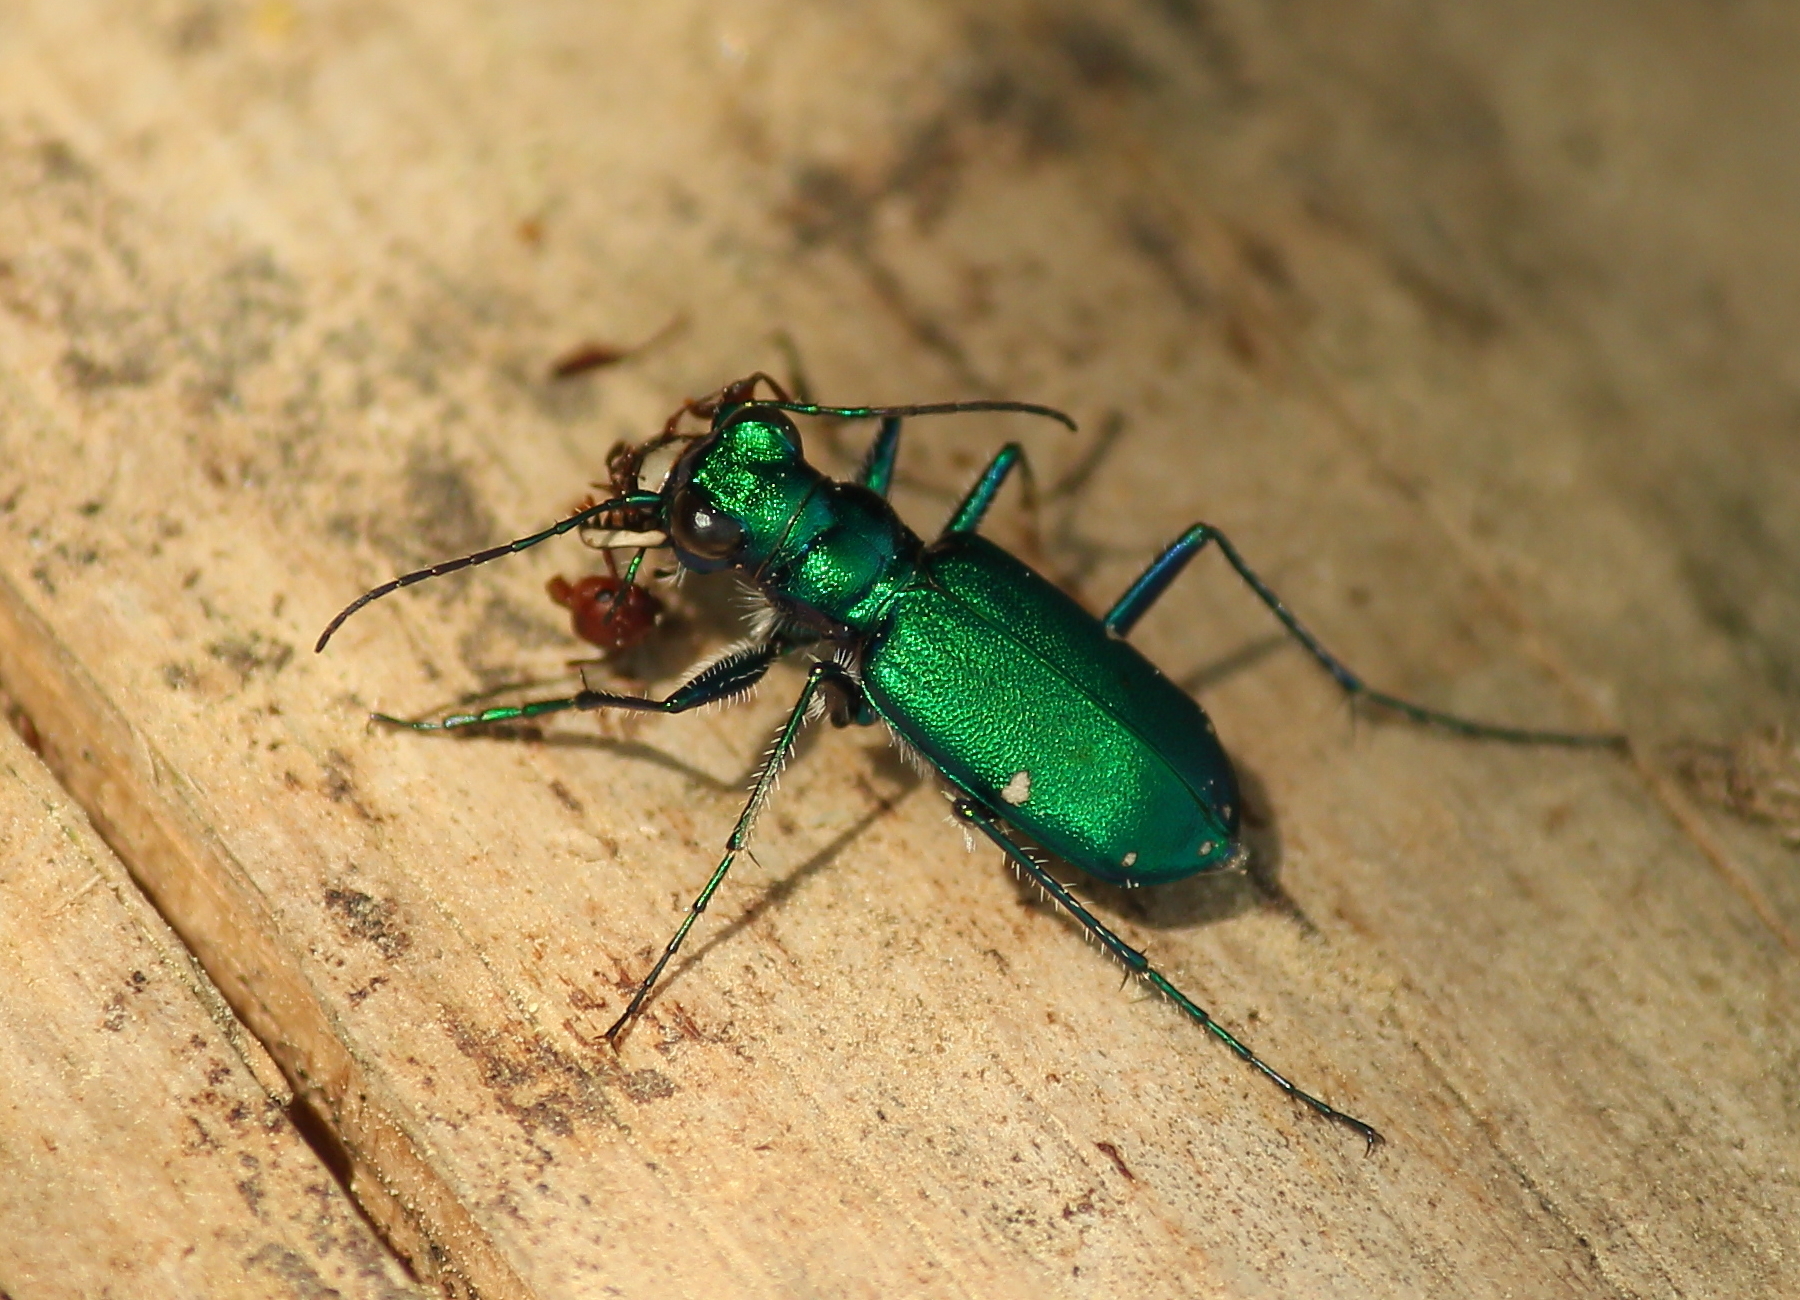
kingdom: Animalia
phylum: Arthropoda
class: Insecta
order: Coleoptera
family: Carabidae
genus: Cicindela
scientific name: Cicindela sexguttata
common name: Six-spotted tiger beetle
